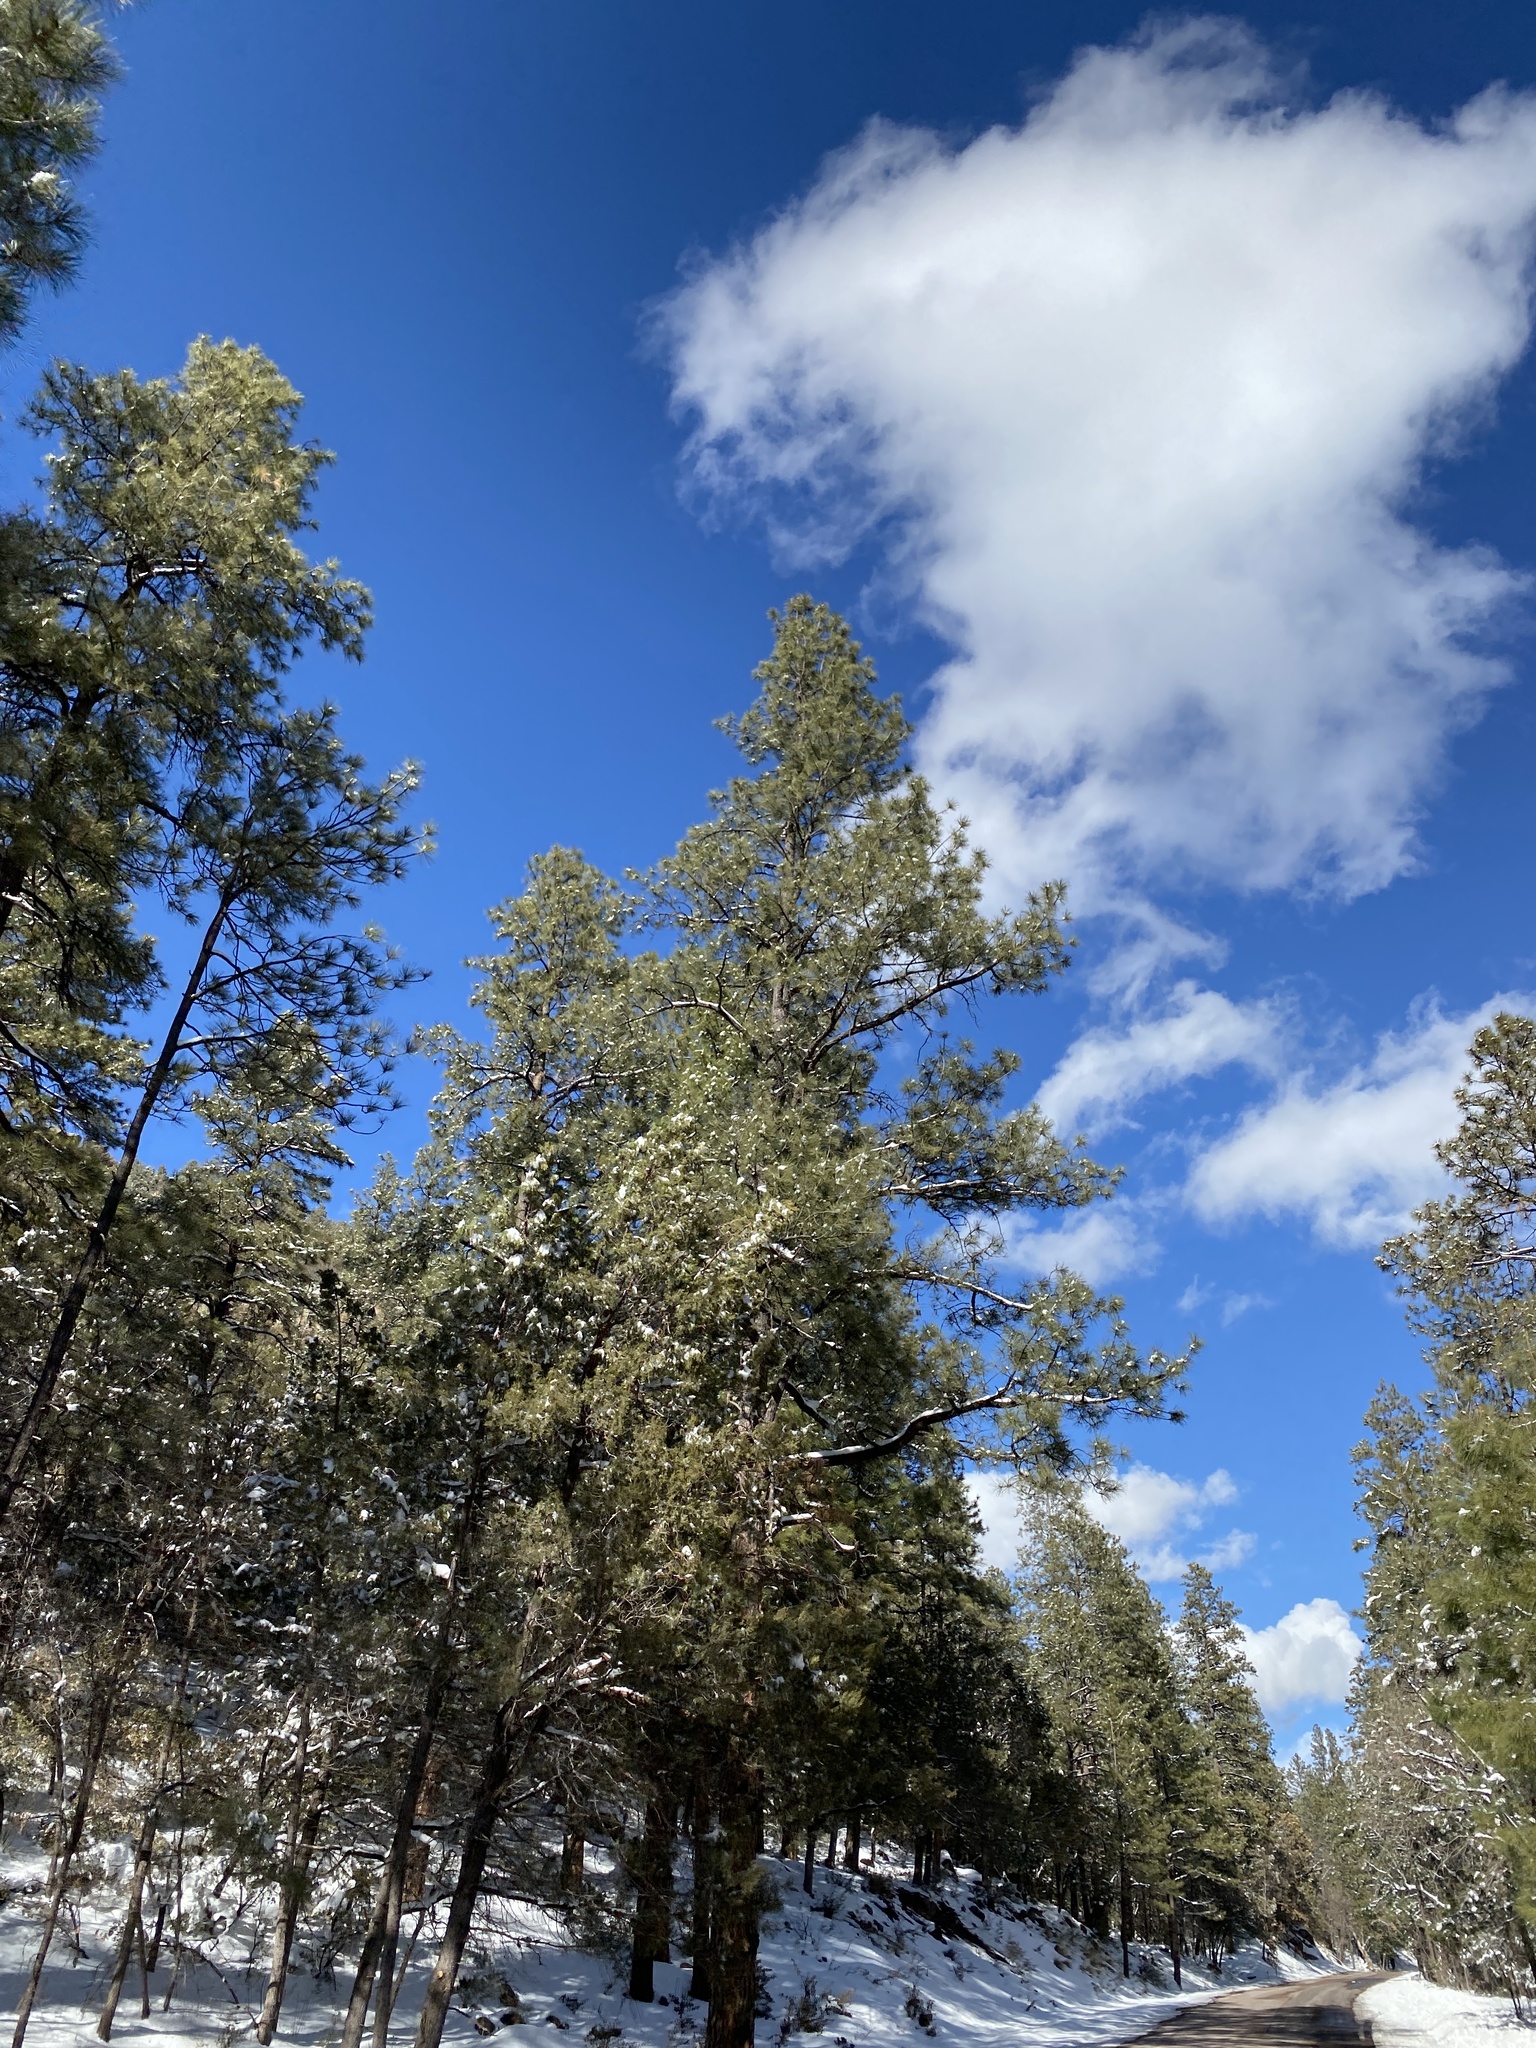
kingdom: Plantae
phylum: Tracheophyta
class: Pinopsida
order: Pinales
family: Pinaceae
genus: Pinus
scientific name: Pinus ponderosa
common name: Western yellow-pine
